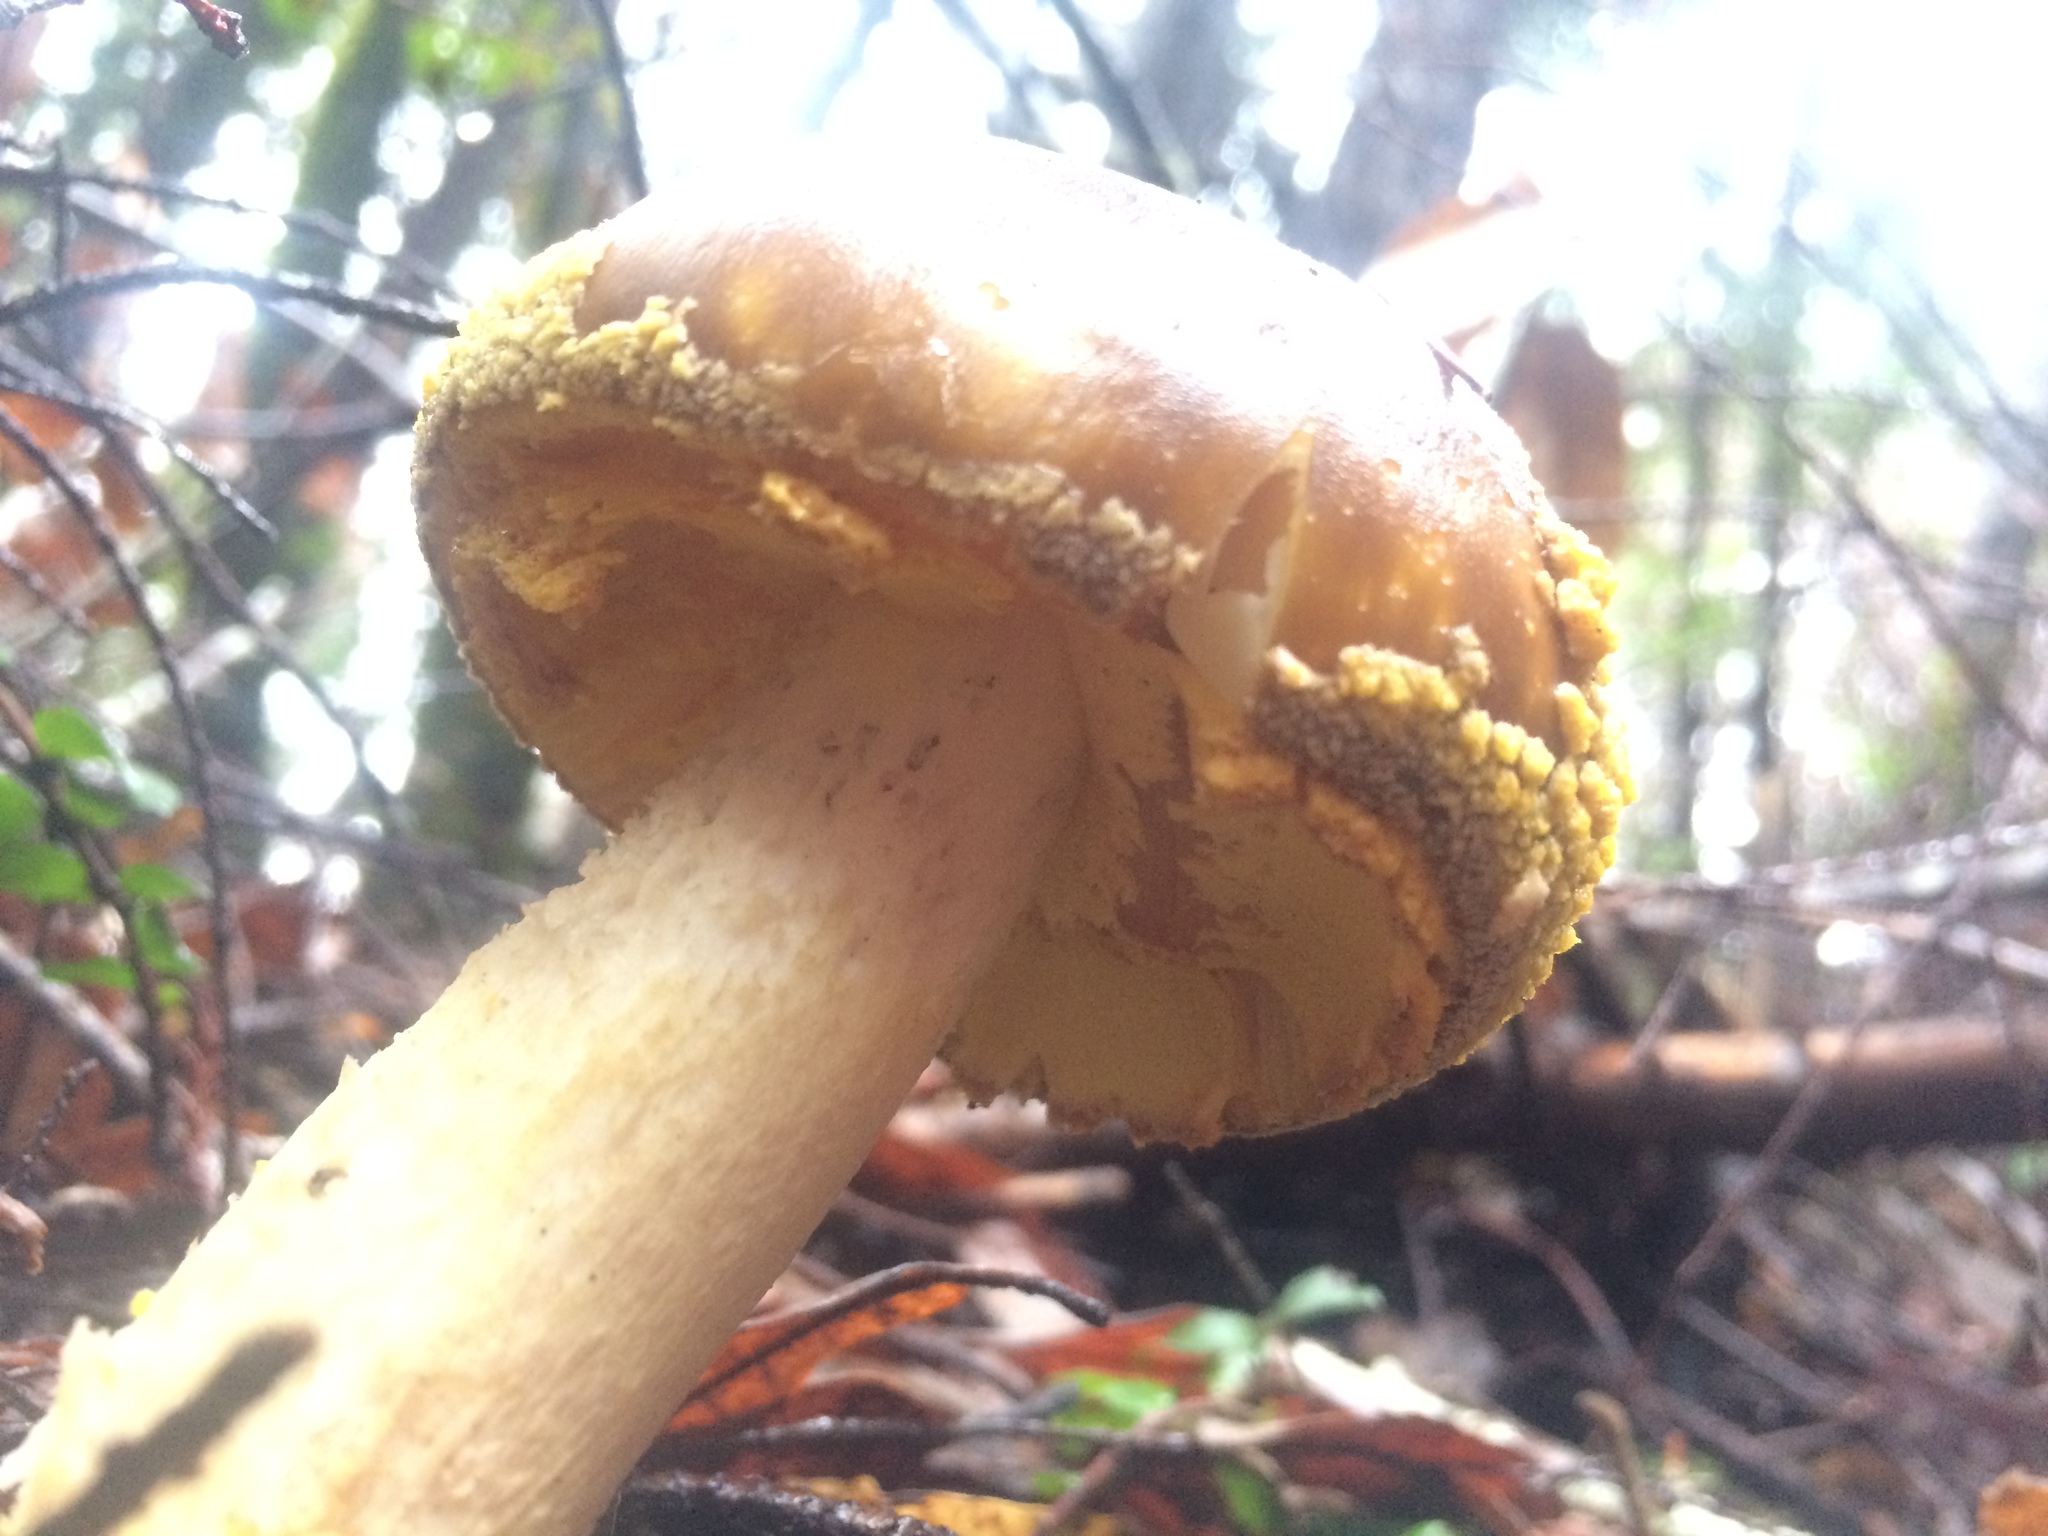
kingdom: Fungi
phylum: Basidiomycota
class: Agaricomycetes
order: Agaricales
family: Amanitaceae
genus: Amanita
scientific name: Amanita augusta
